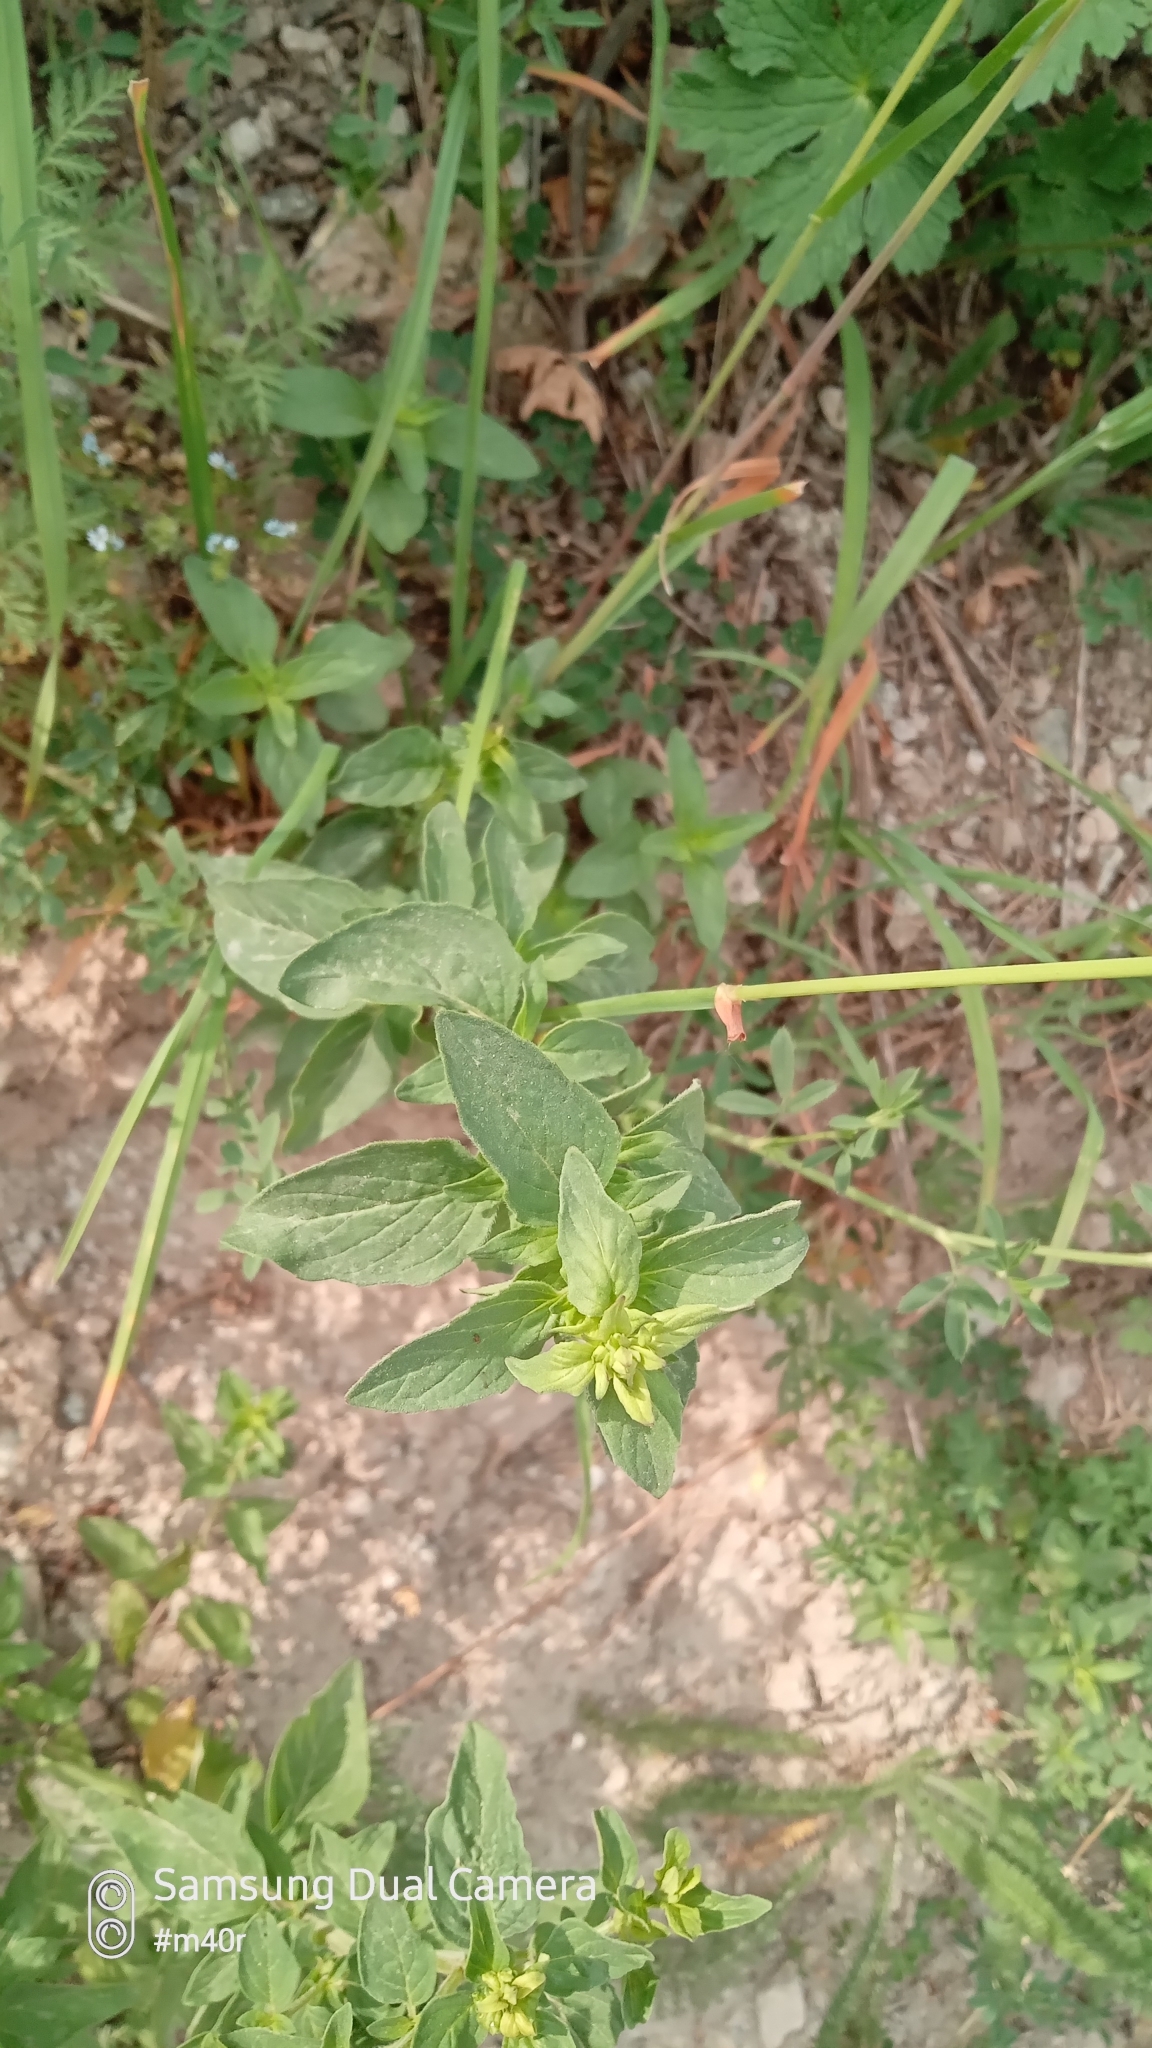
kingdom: Plantae
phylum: Tracheophyta
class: Magnoliopsida
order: Lamiales
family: Lamiaceae
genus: Origanum
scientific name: Origanum vulgare
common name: Wild marjoram
